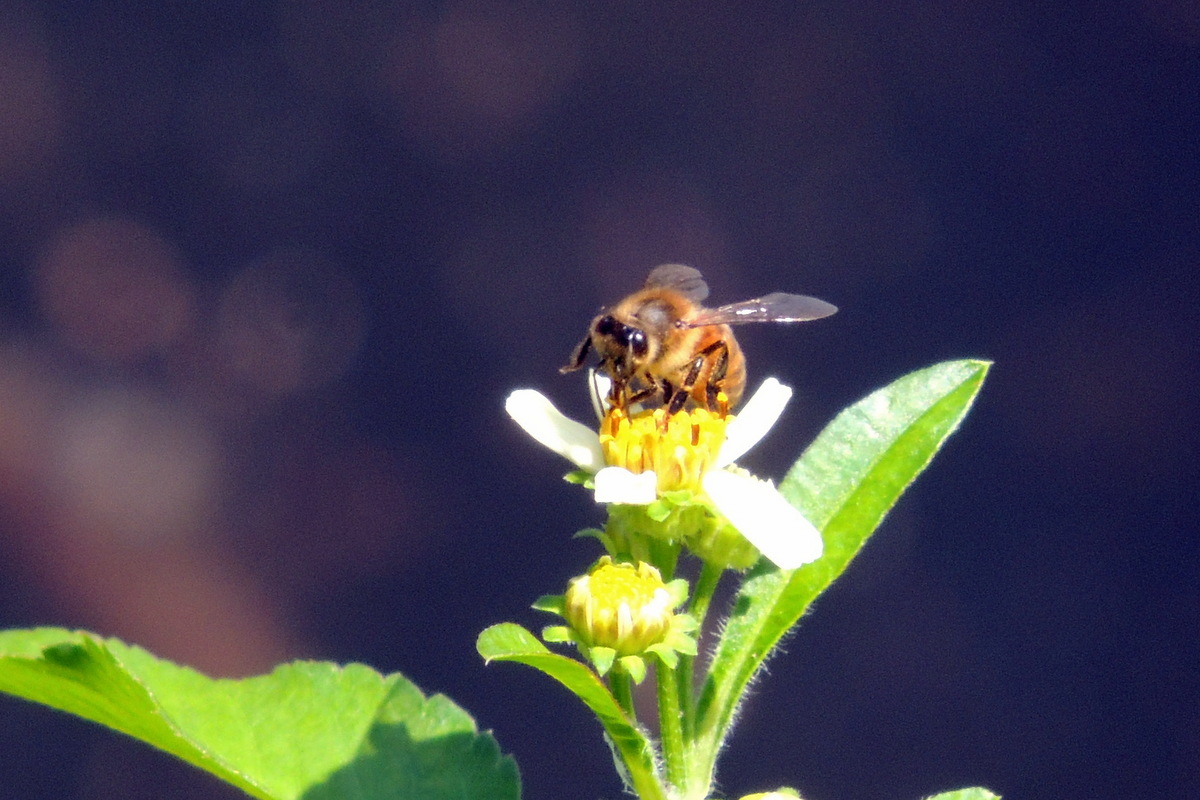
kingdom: Animalia
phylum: Arthropoda
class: Insecta
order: Hymenoptera
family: Apidae
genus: Apis
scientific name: Apis mellifera
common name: Honey bee
